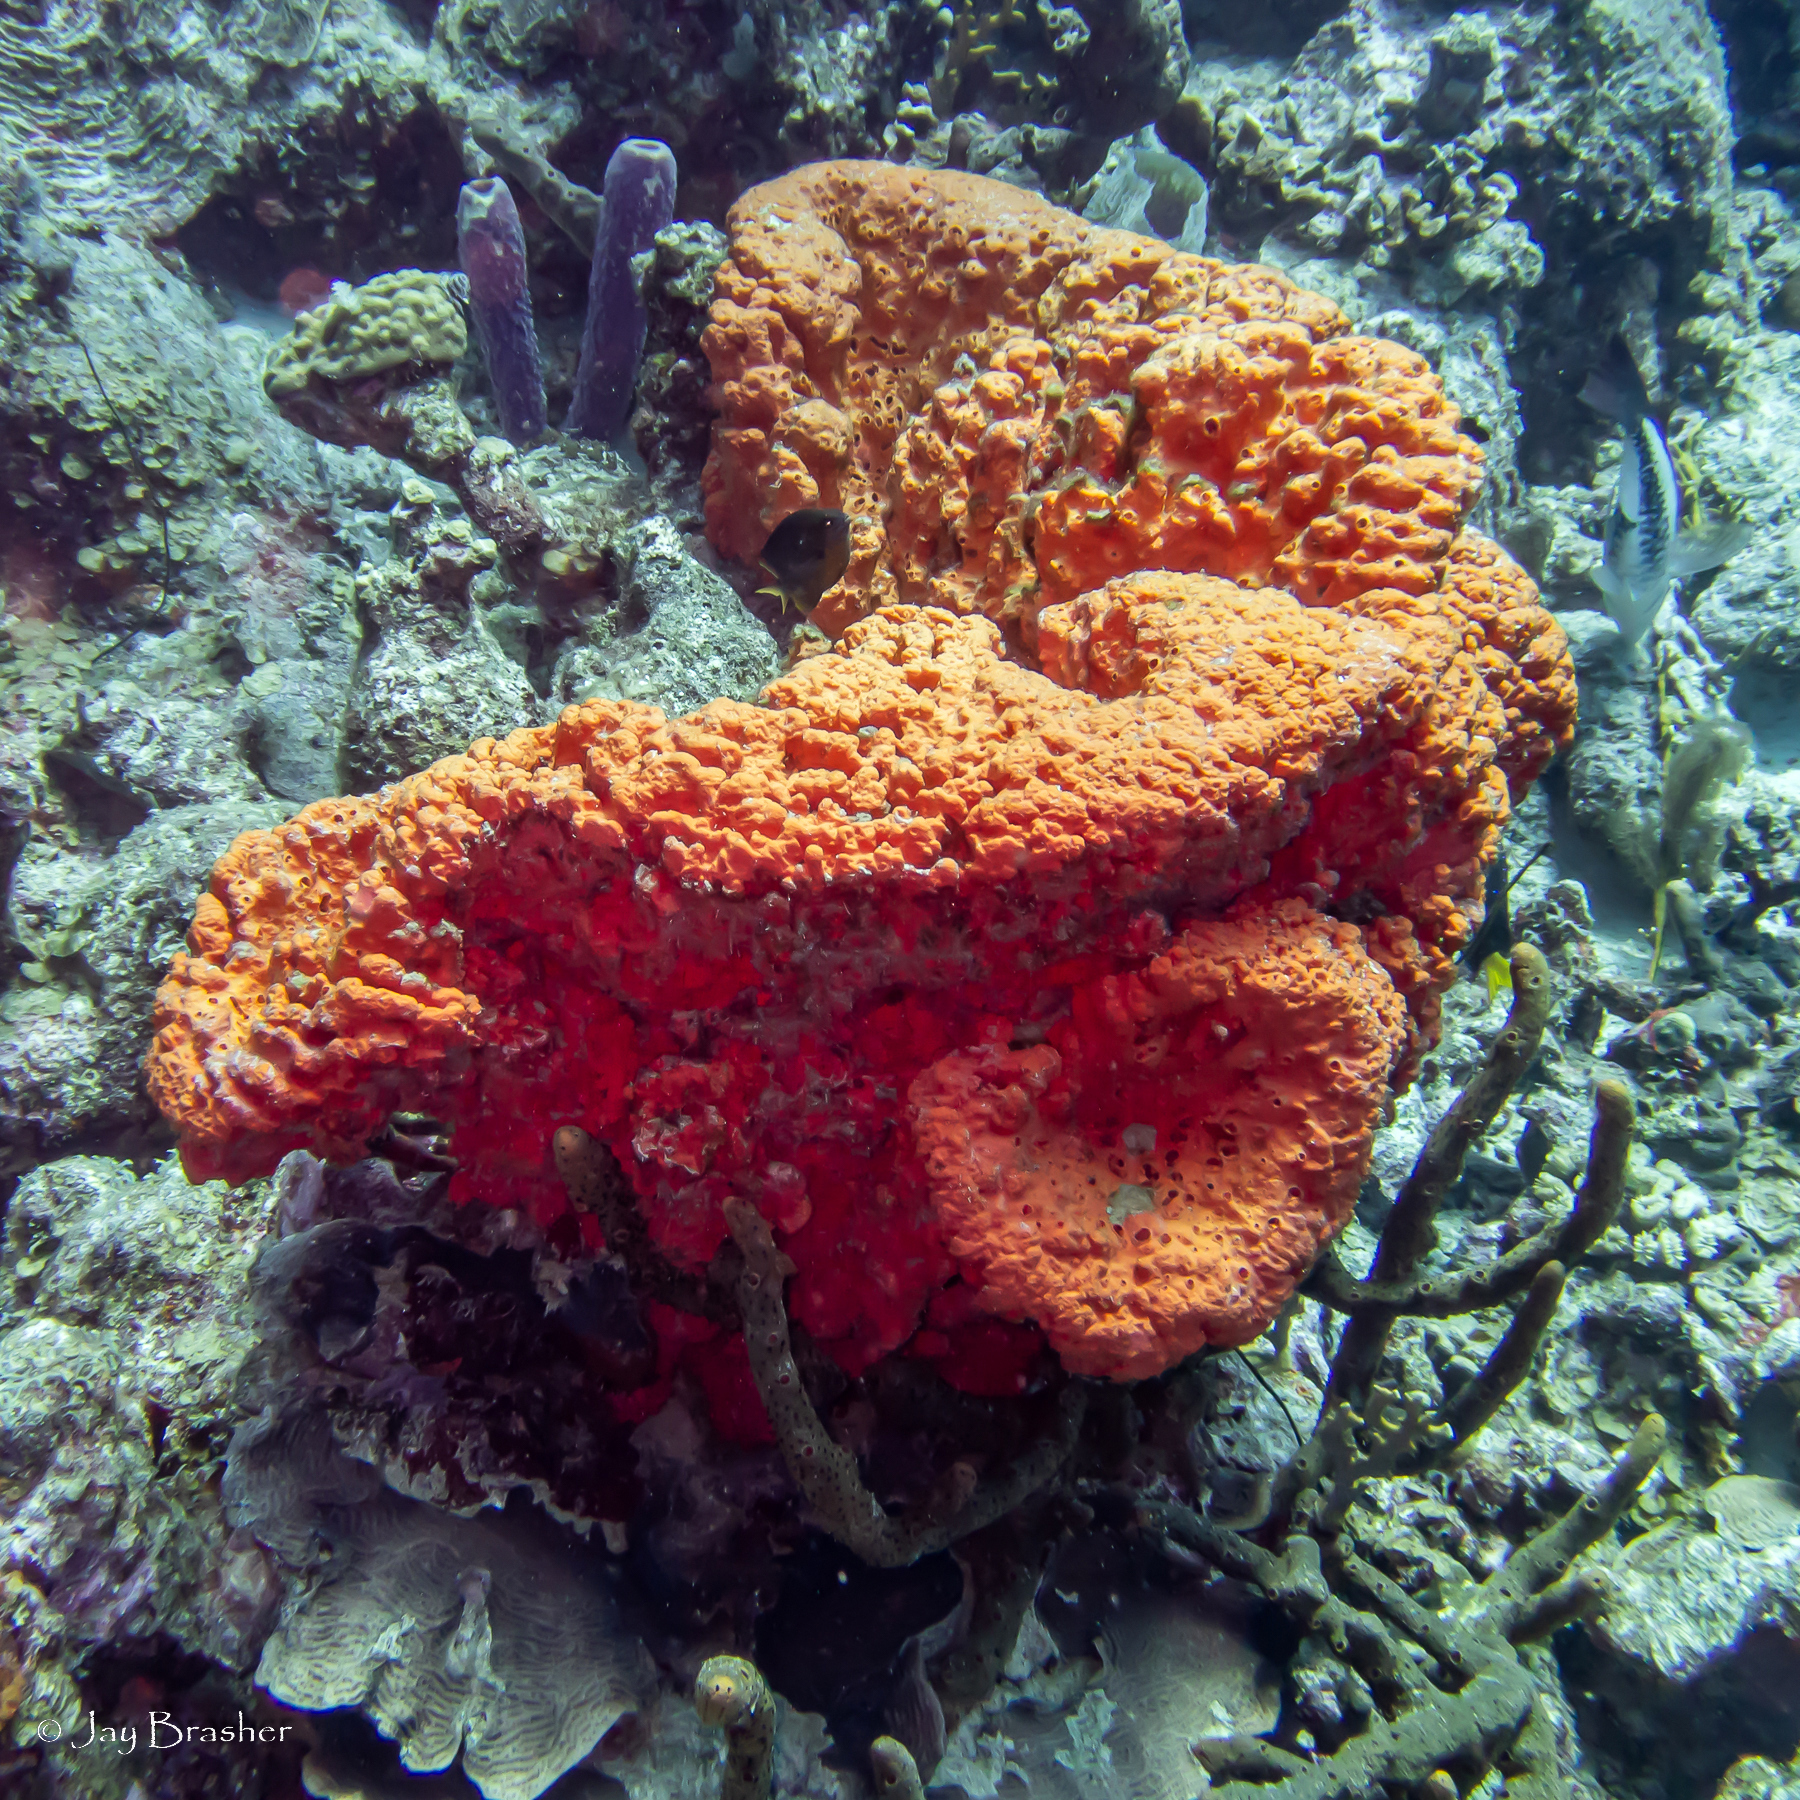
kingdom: Animalia
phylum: Chordata
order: Perciformes
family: Scaridae
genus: Scarus
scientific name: Scarus vetula
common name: Queen parrotfish
